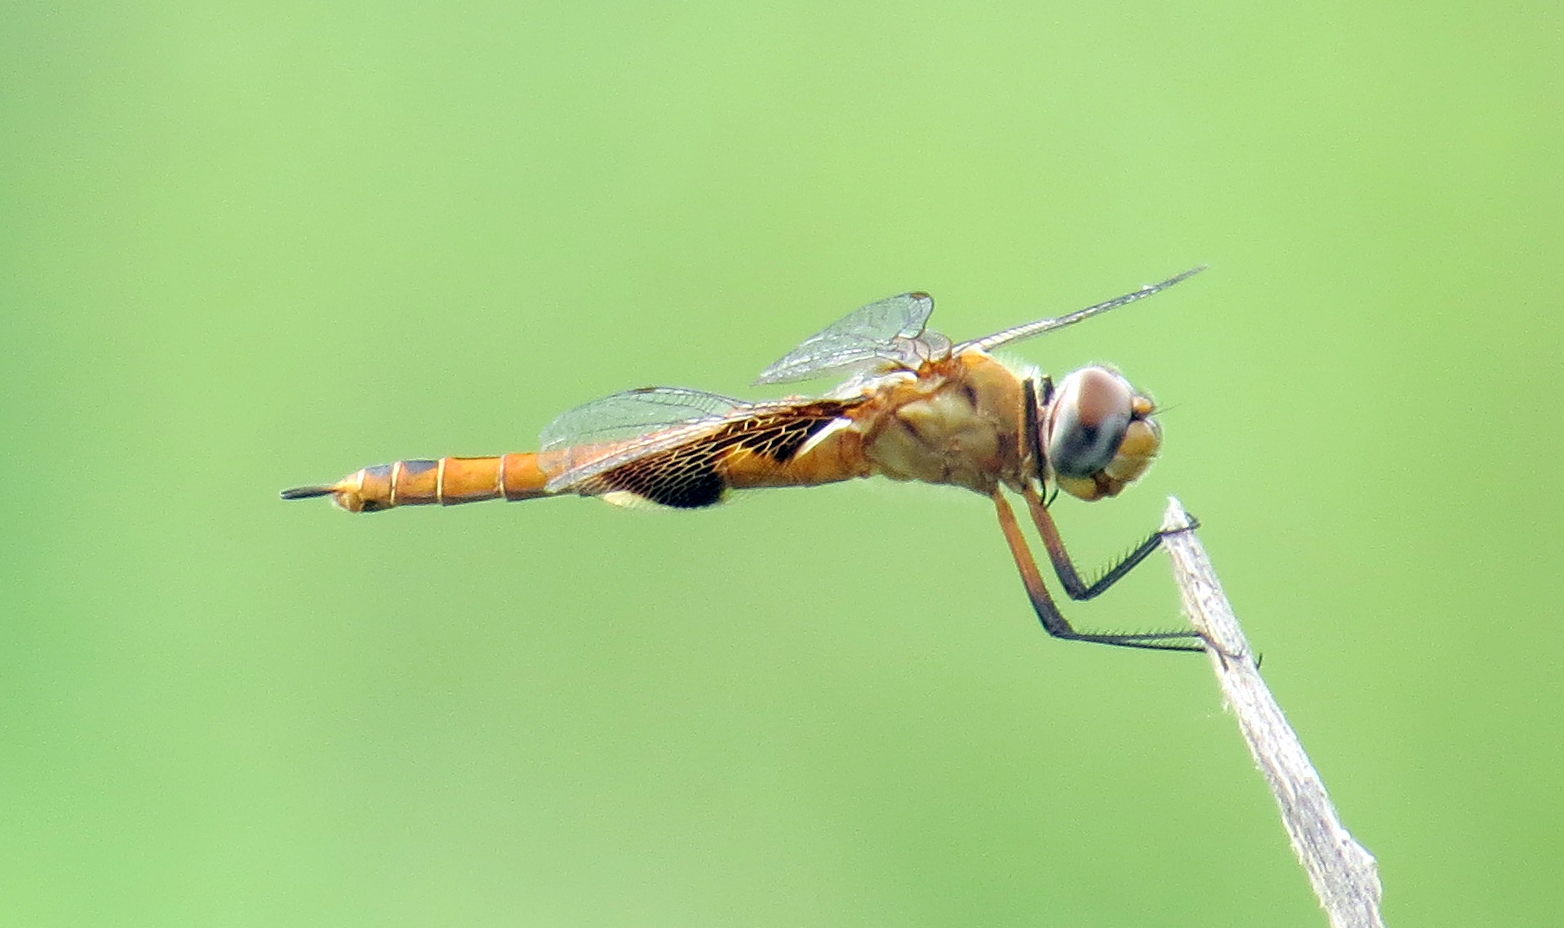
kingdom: Animalia
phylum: Arthropoda
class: Insecta
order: Odonata
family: Libellulidae
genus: Tramea
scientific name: Tramea onusta
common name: Red saddlebags
